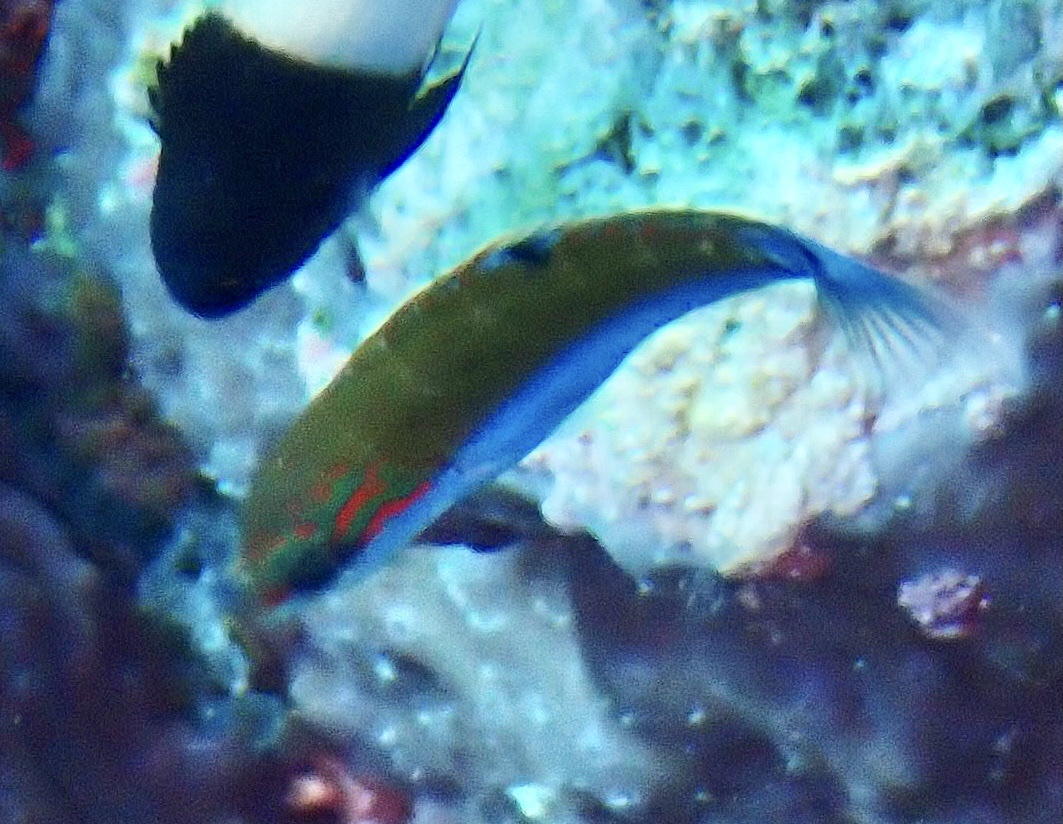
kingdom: Animalia
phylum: Chordata
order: Perciformes
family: Labridae
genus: Thalassoma
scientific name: Thalassoma lunare
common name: Blue wrasse
